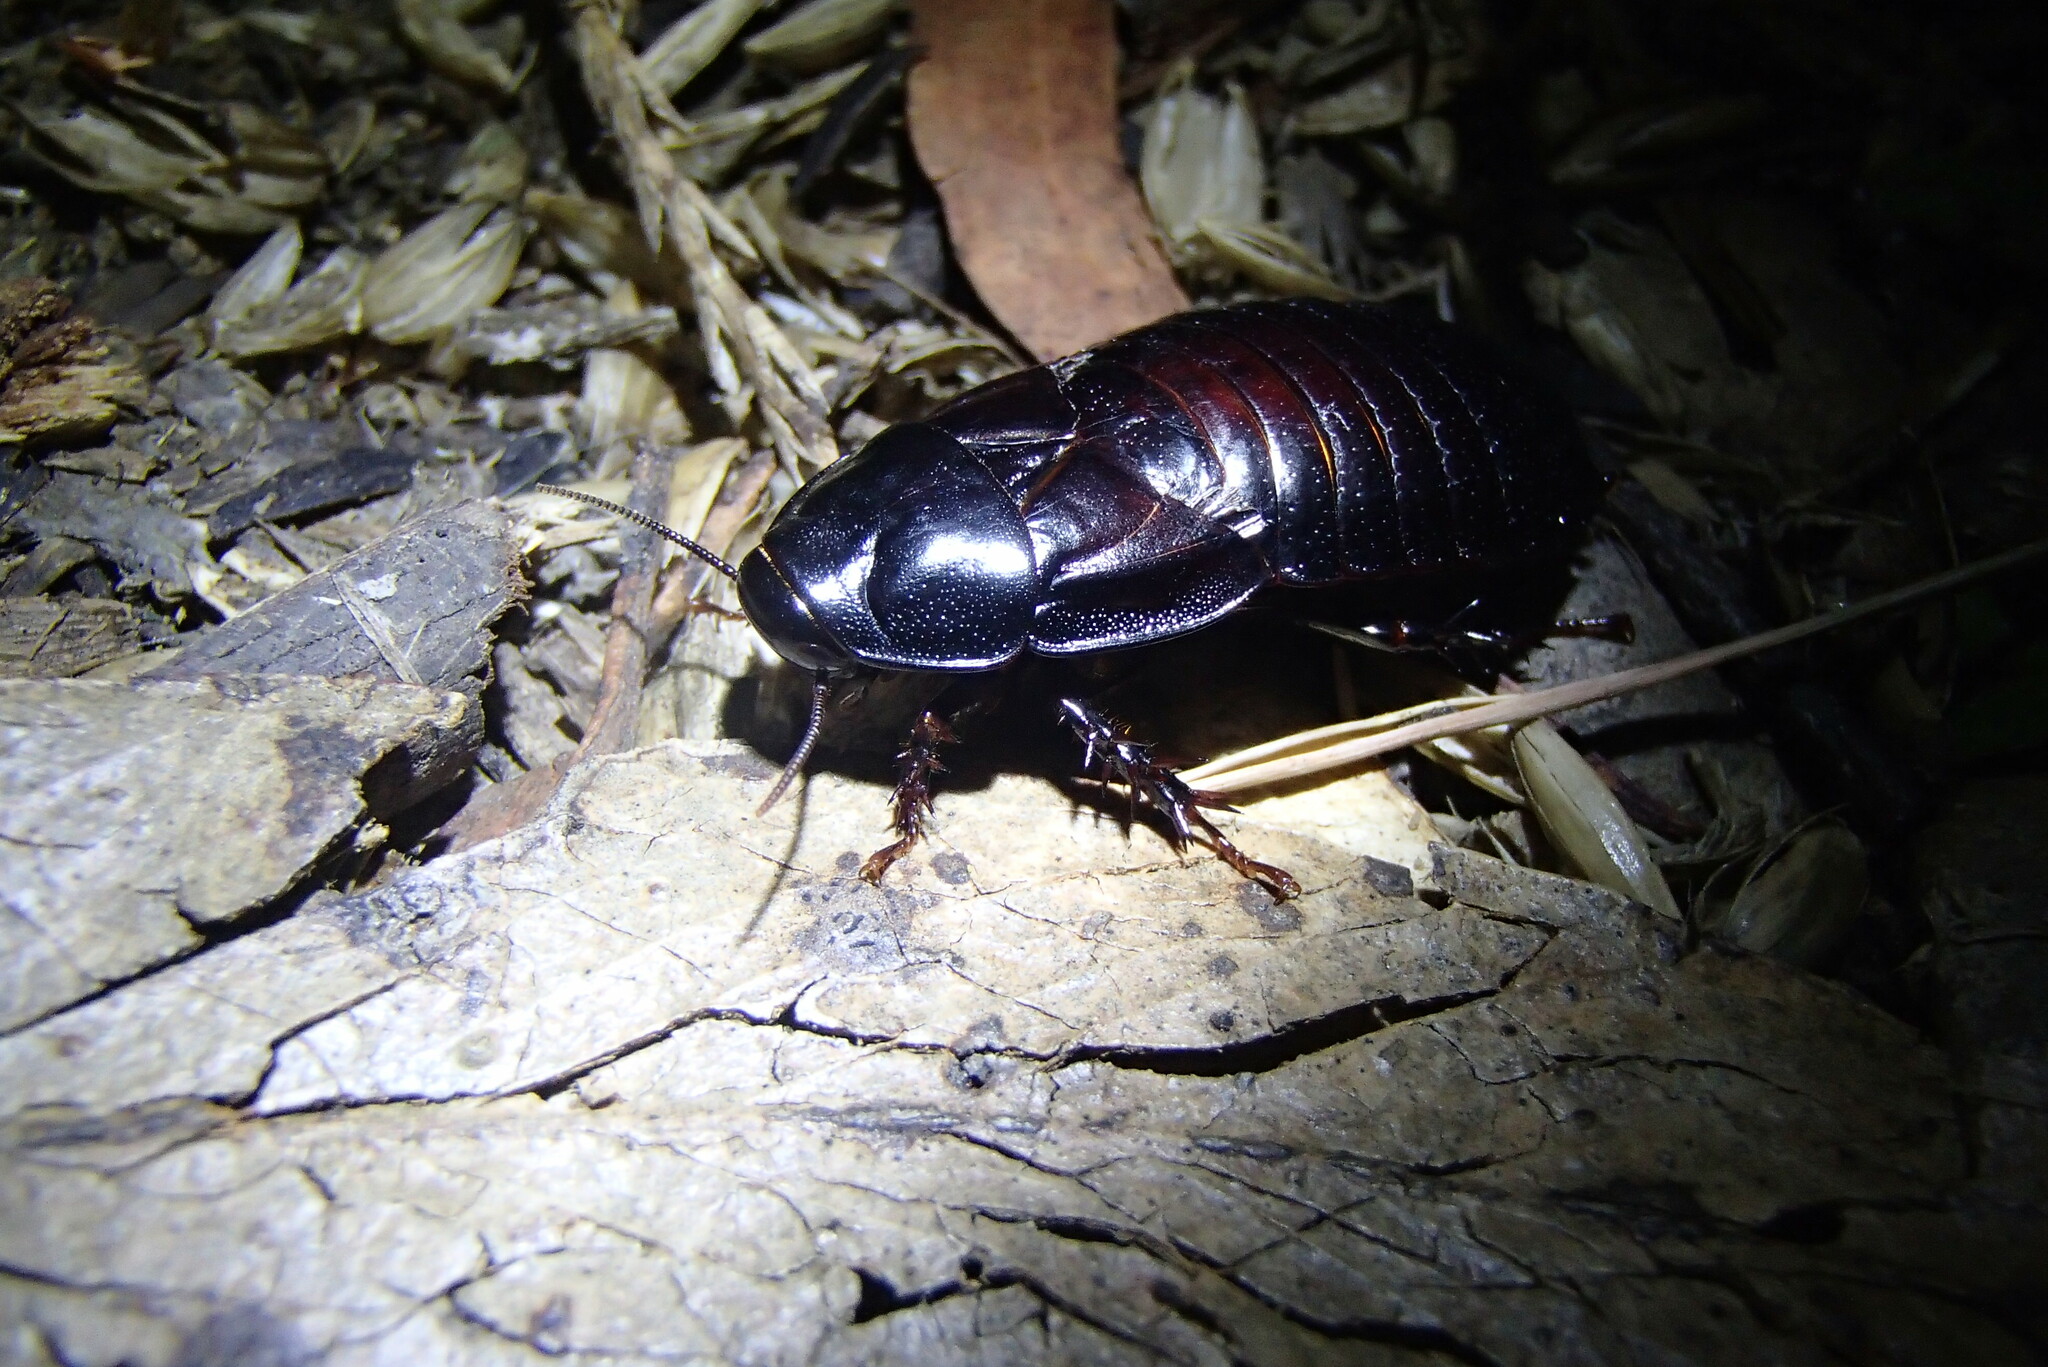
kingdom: Animalia
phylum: Arthropoda
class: Insecta
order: Blattodea
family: Blaberidae
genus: Panesthia
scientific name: Panesthia australis
